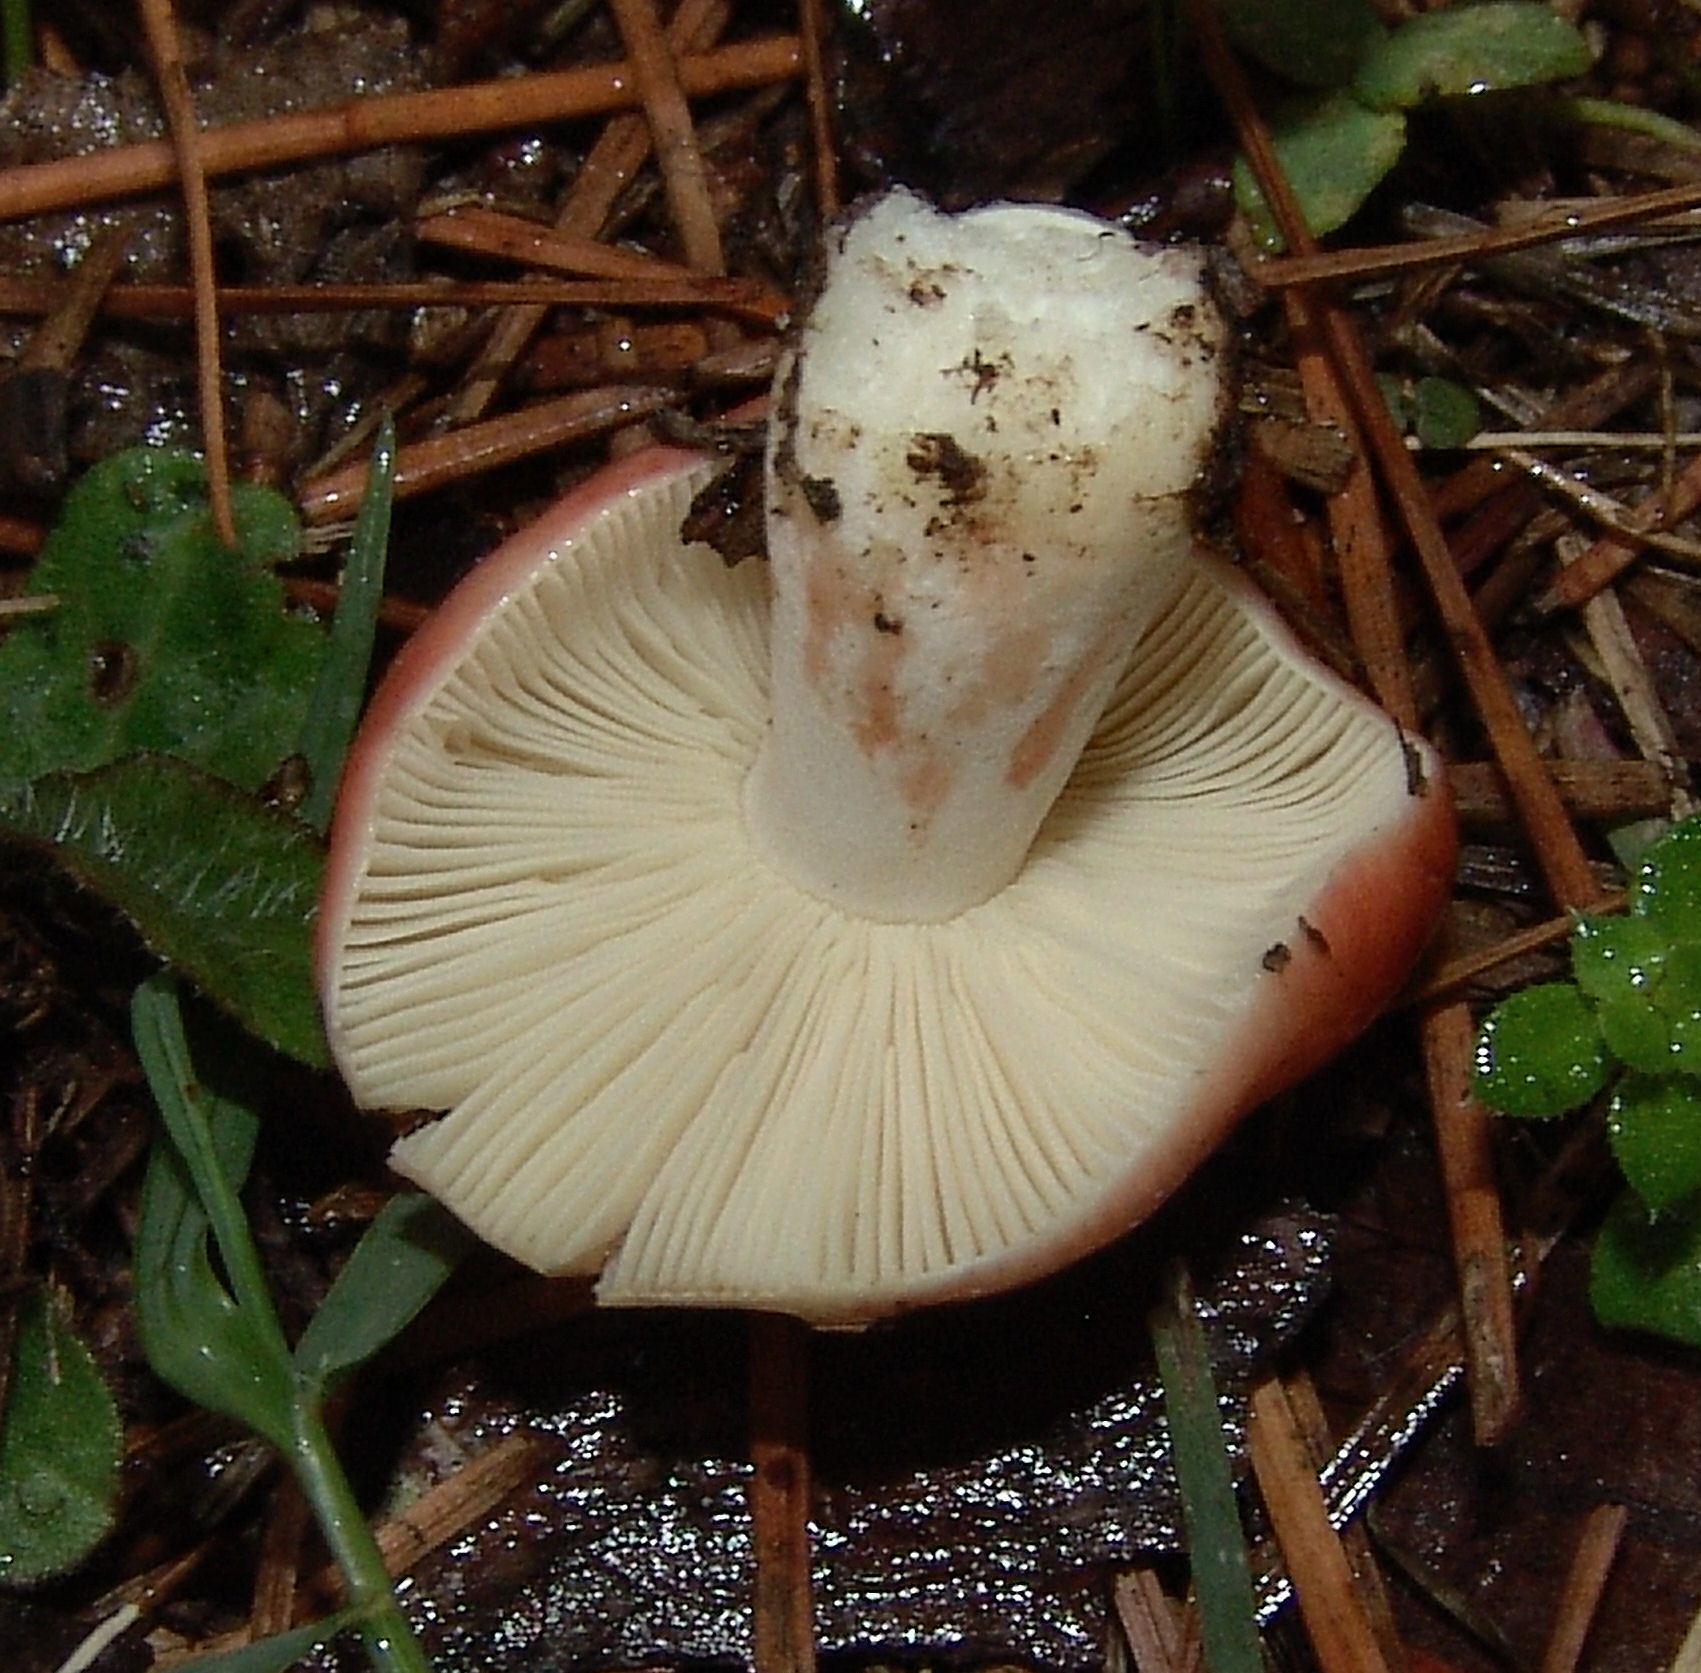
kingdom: Fungi
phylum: Basidiomycota
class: Agaricomycetes
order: Russulales
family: Russulaceae
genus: Russula
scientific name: Russula
